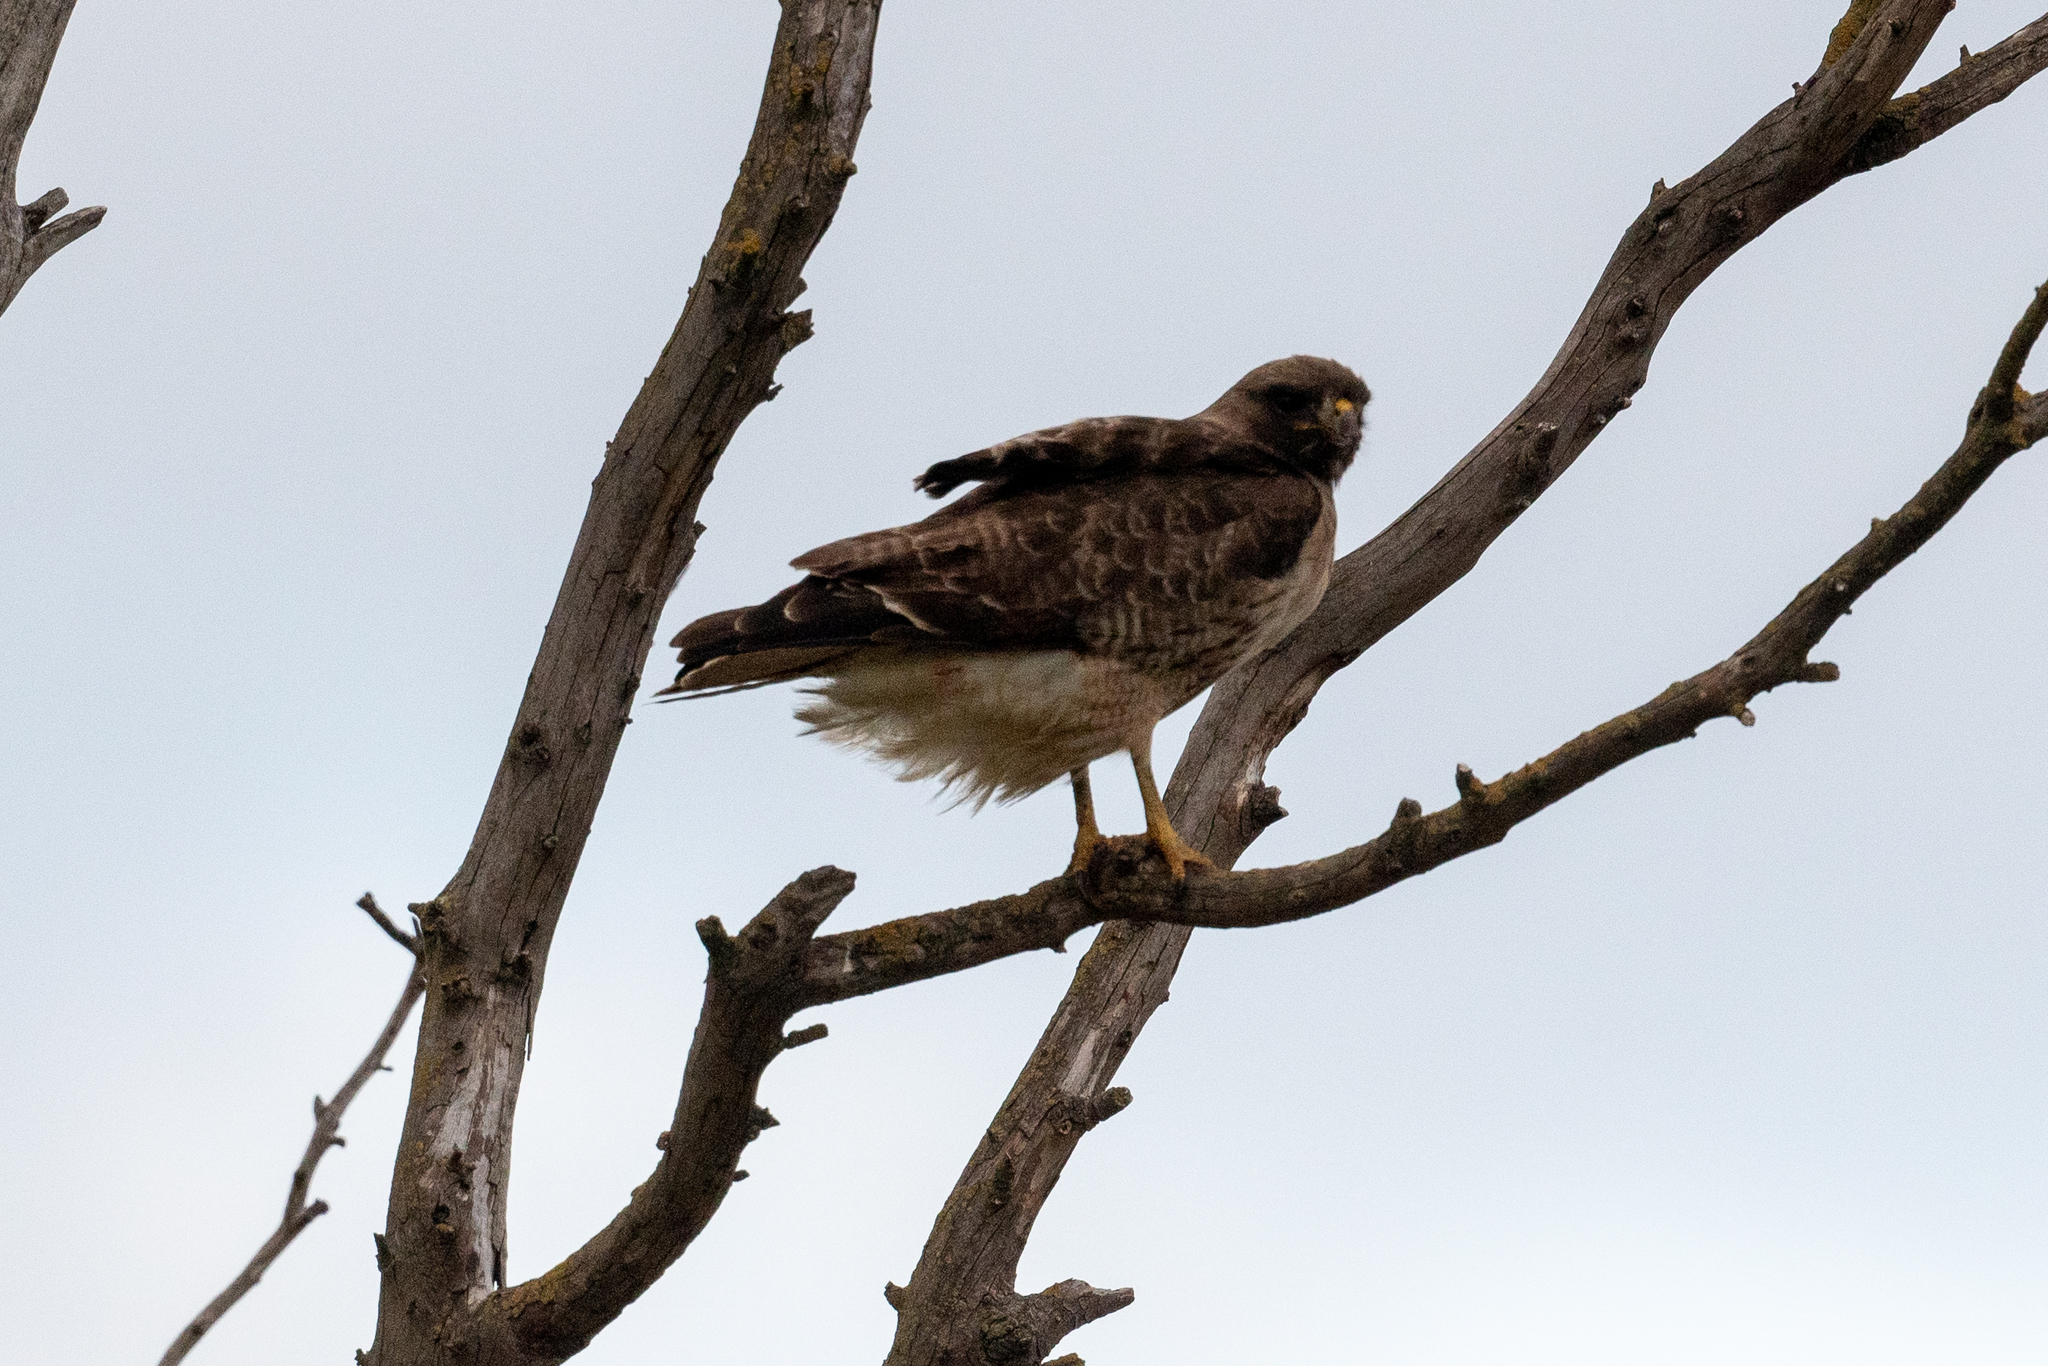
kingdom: Animalia
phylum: Chordata
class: Aves
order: Accipitriformes
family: Accipitridae
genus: Buteo
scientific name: Buteo swainsoni
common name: Swainson's hawk
